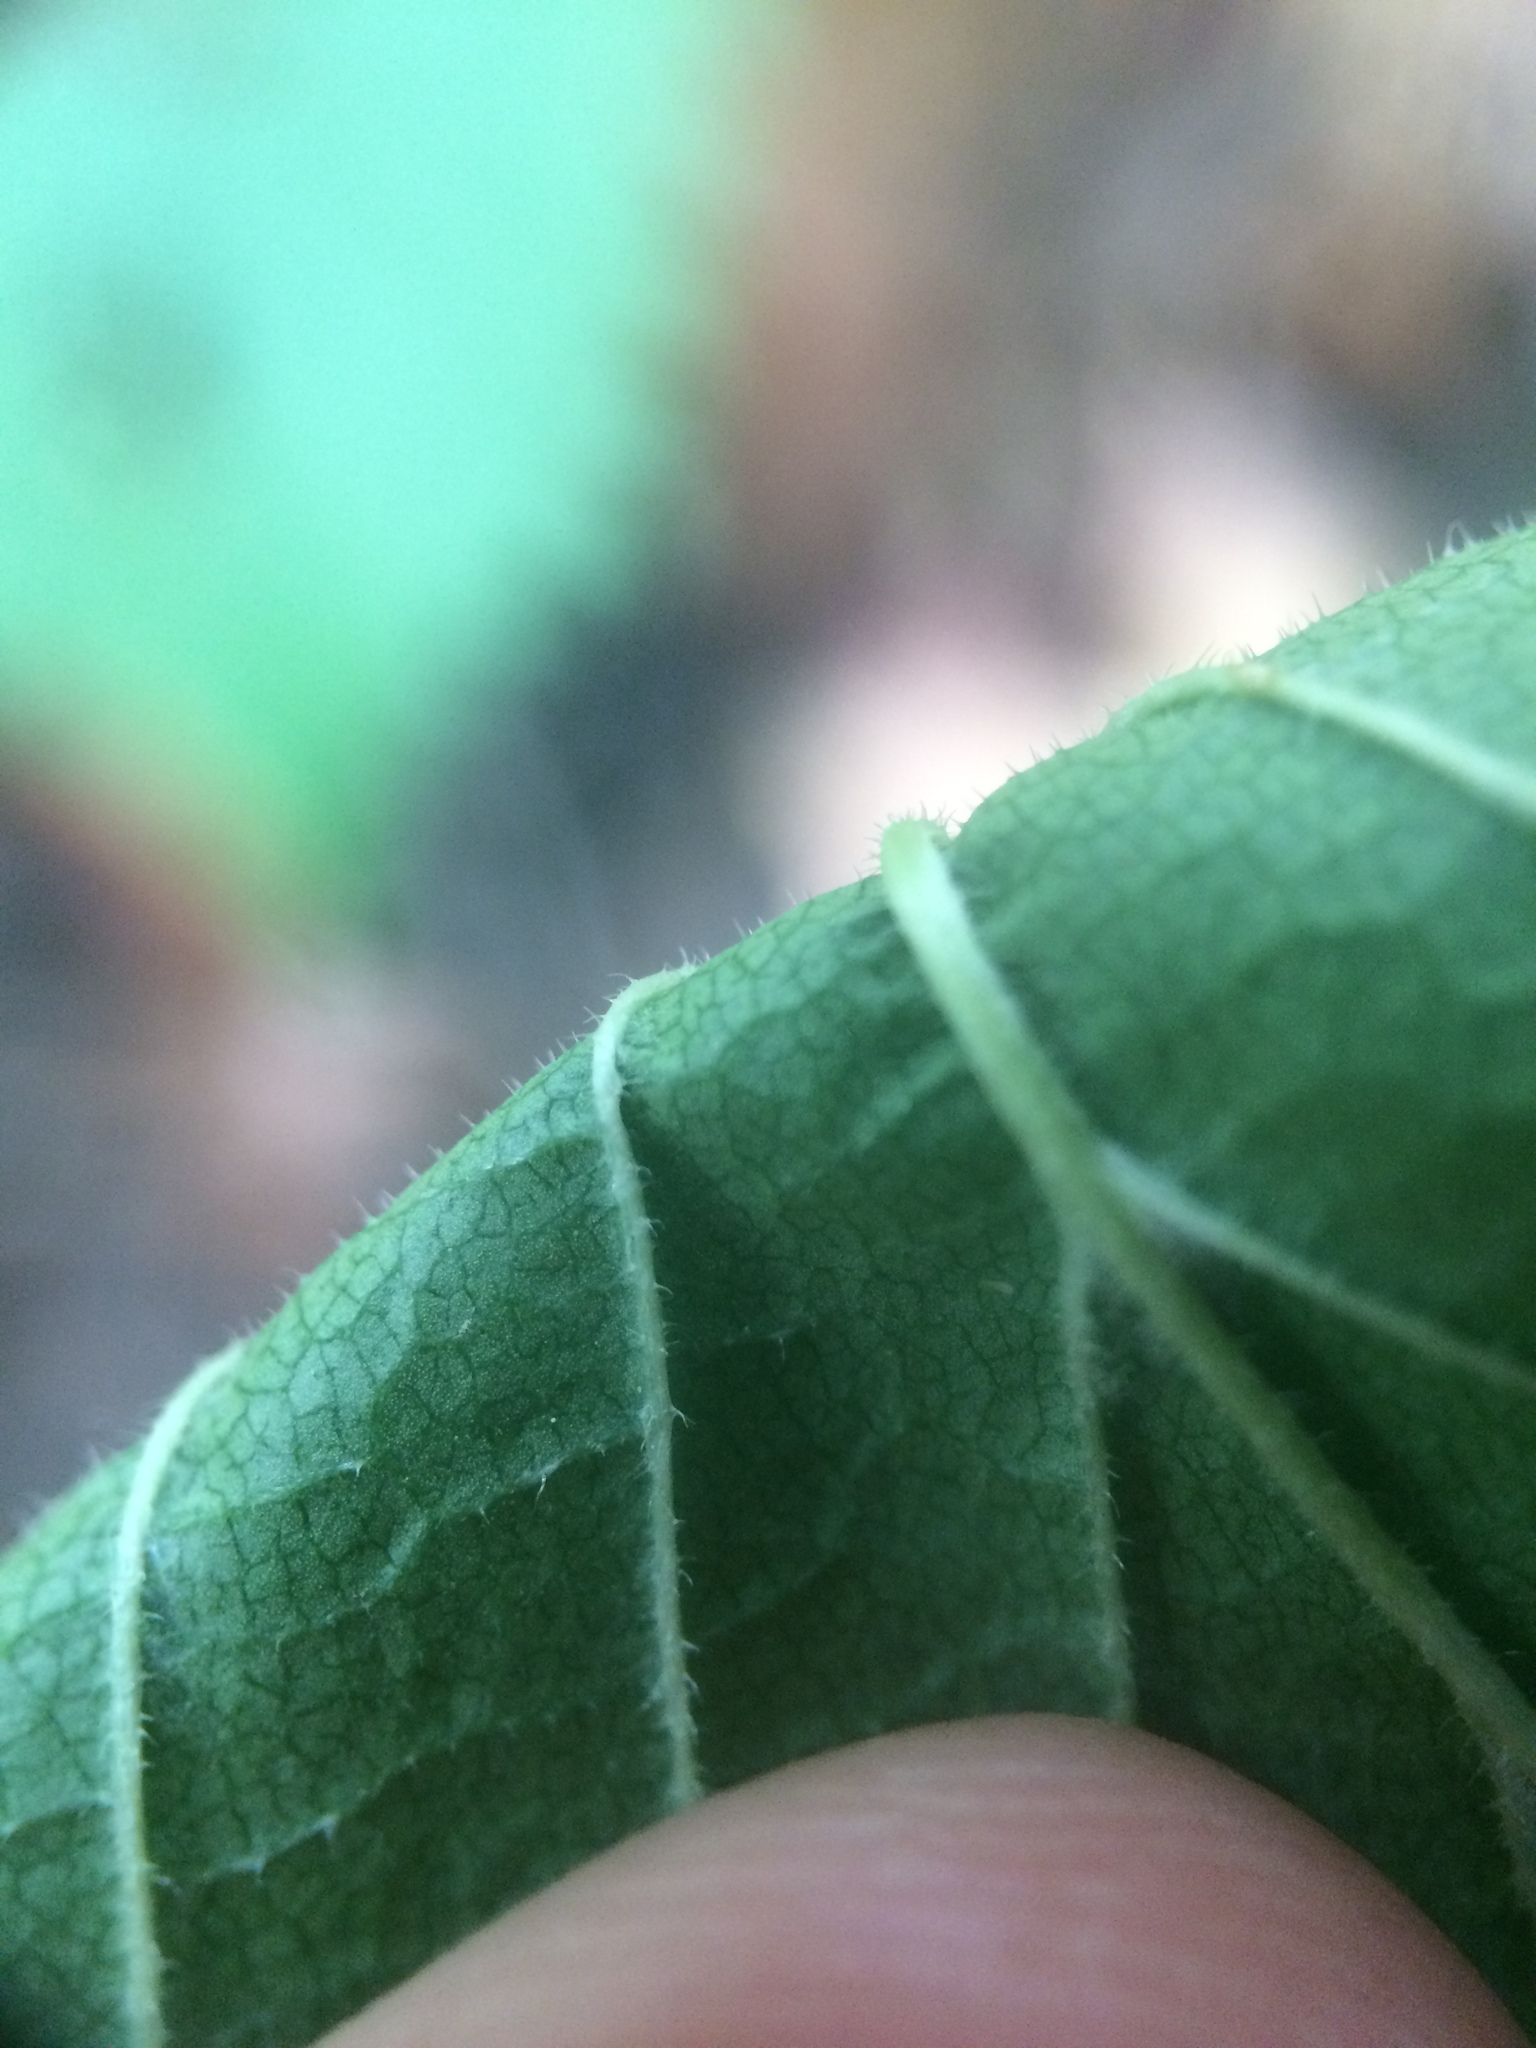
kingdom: Plantae
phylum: Tracheophyta
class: Magnoliopsida
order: Rosales
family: Ulmaceae
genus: Ulmus
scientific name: Ulmus rubra
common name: Slippery elm
